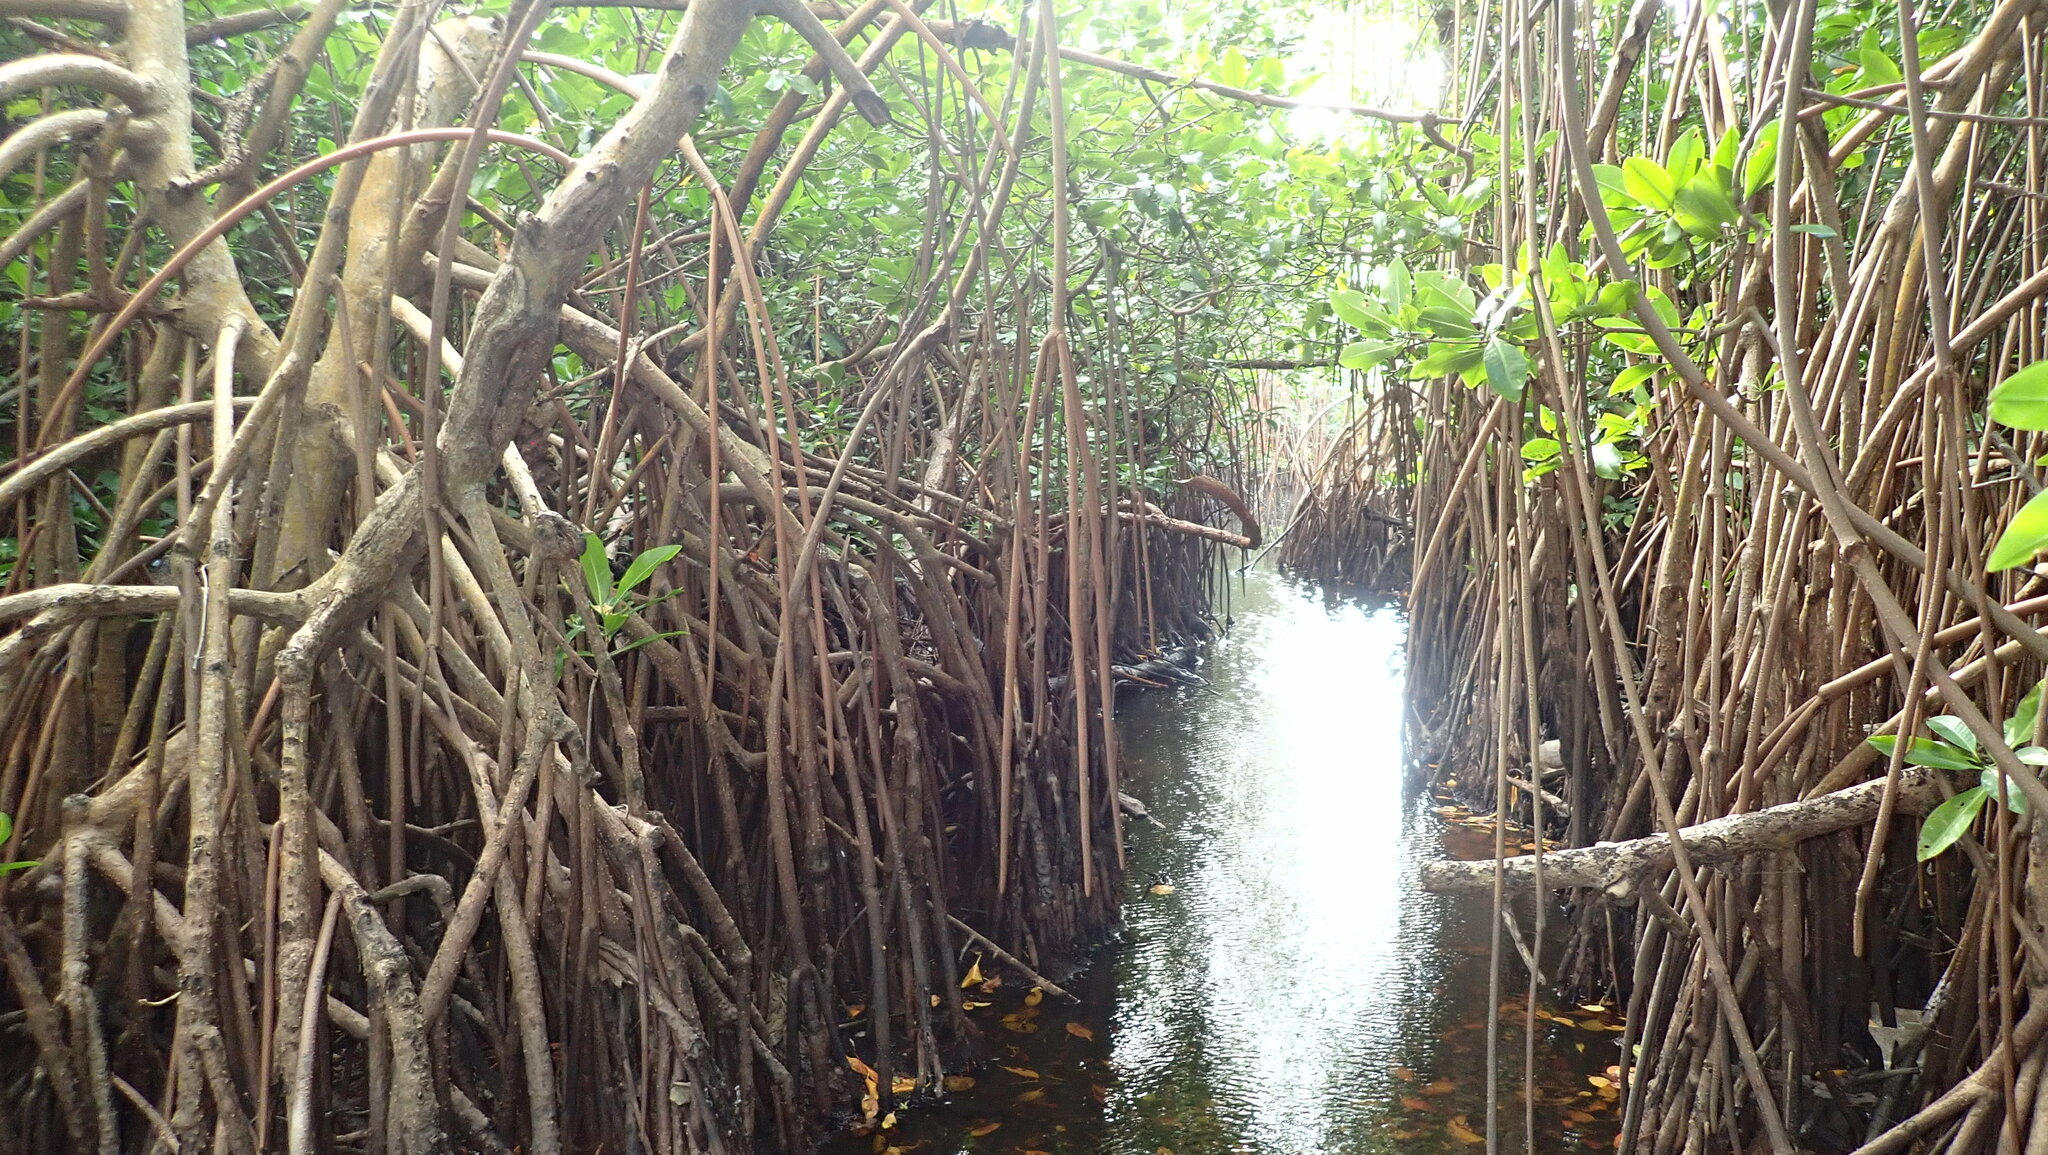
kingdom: Plantae
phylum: Tracheophyta
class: Magnoliopsida
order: Malpighiales
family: Rhizophoraceae
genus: Rhizophora
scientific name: Rhizophora mangle
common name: Red mangrove
